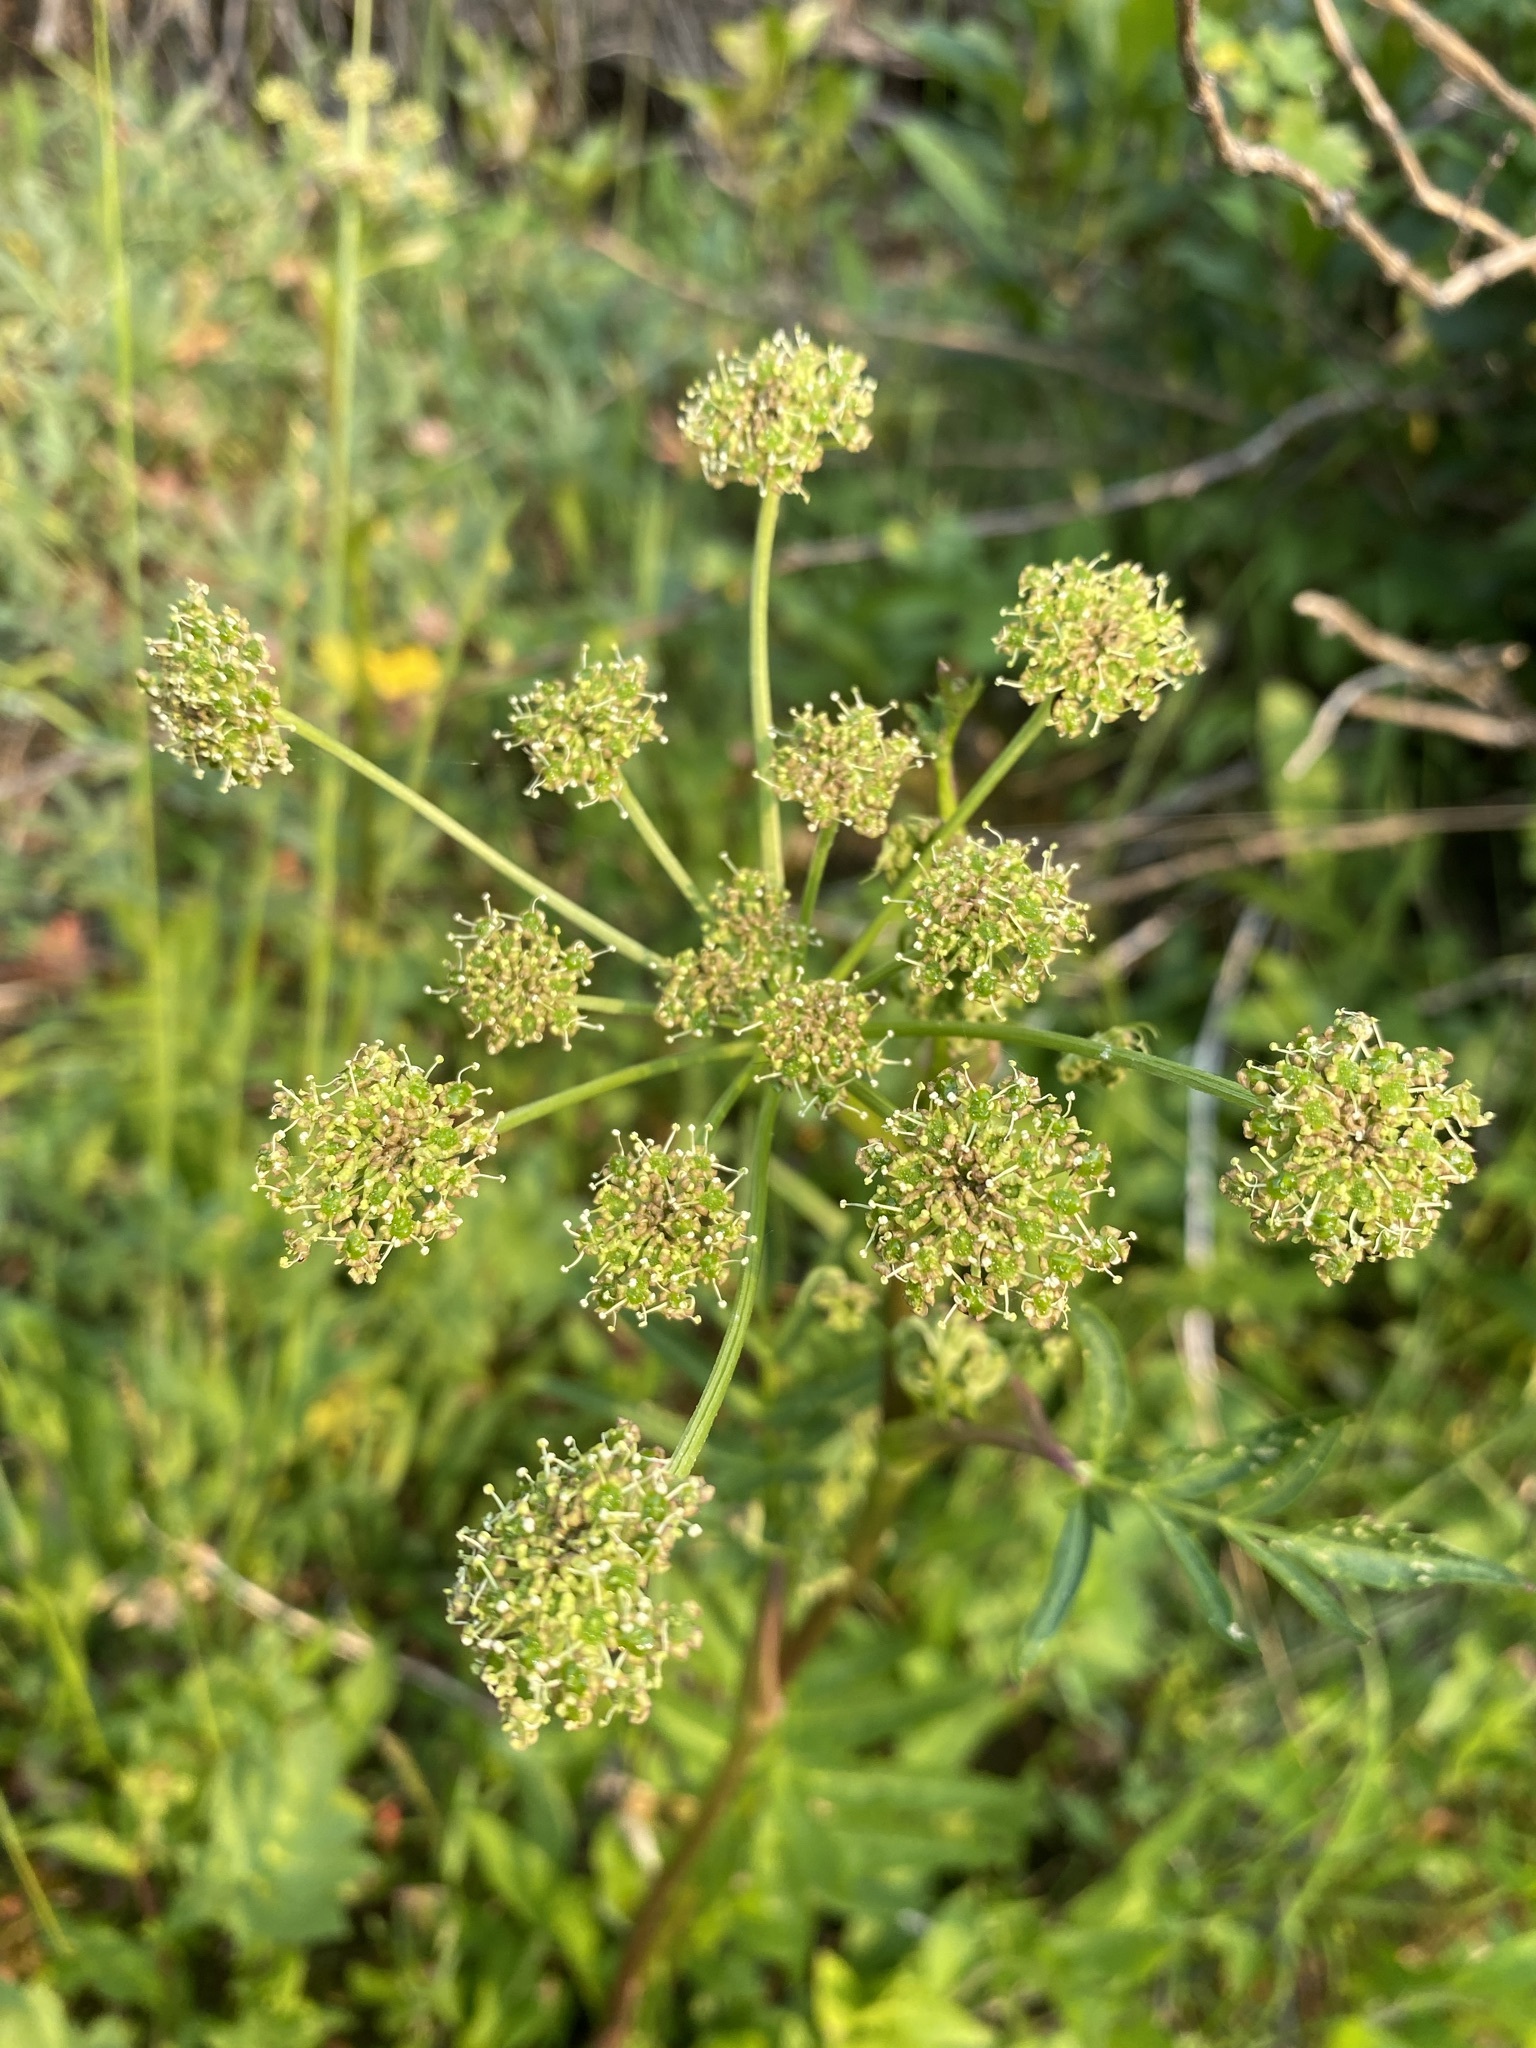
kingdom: Plantae
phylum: Tracheophyta
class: Magnoliopsida
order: Apiales
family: Apiaceae
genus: Angelica
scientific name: Angelica pinnata
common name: Littleleaf angelica
